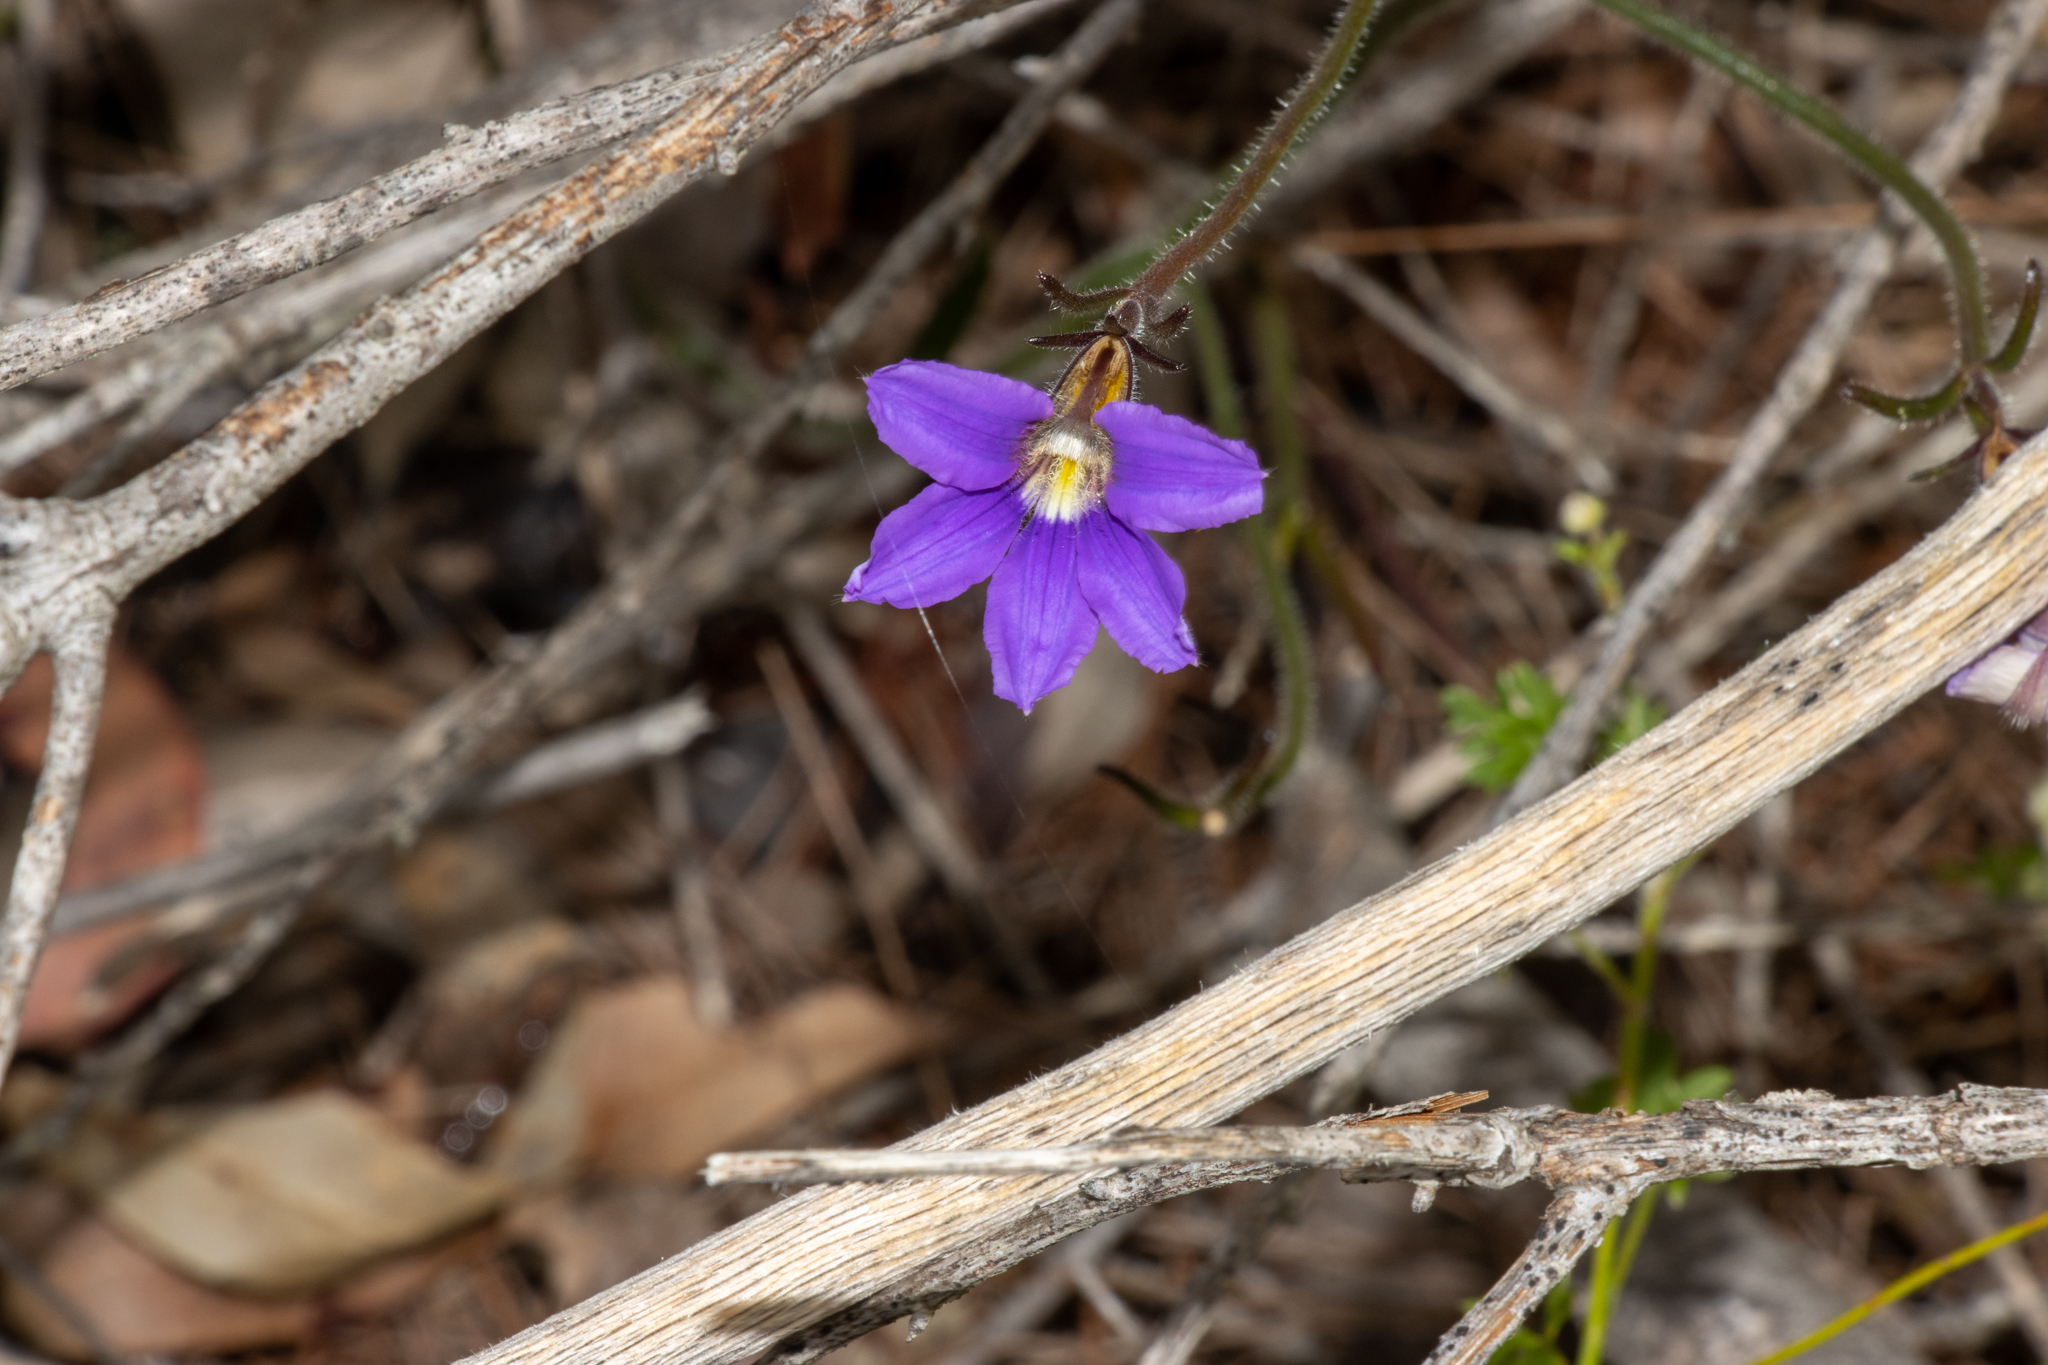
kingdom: Plantae
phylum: Tracheophyta
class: Magnoliopsida
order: Asterales
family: Goodeniaceae
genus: Scaevola
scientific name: Scaevola ramosissima
